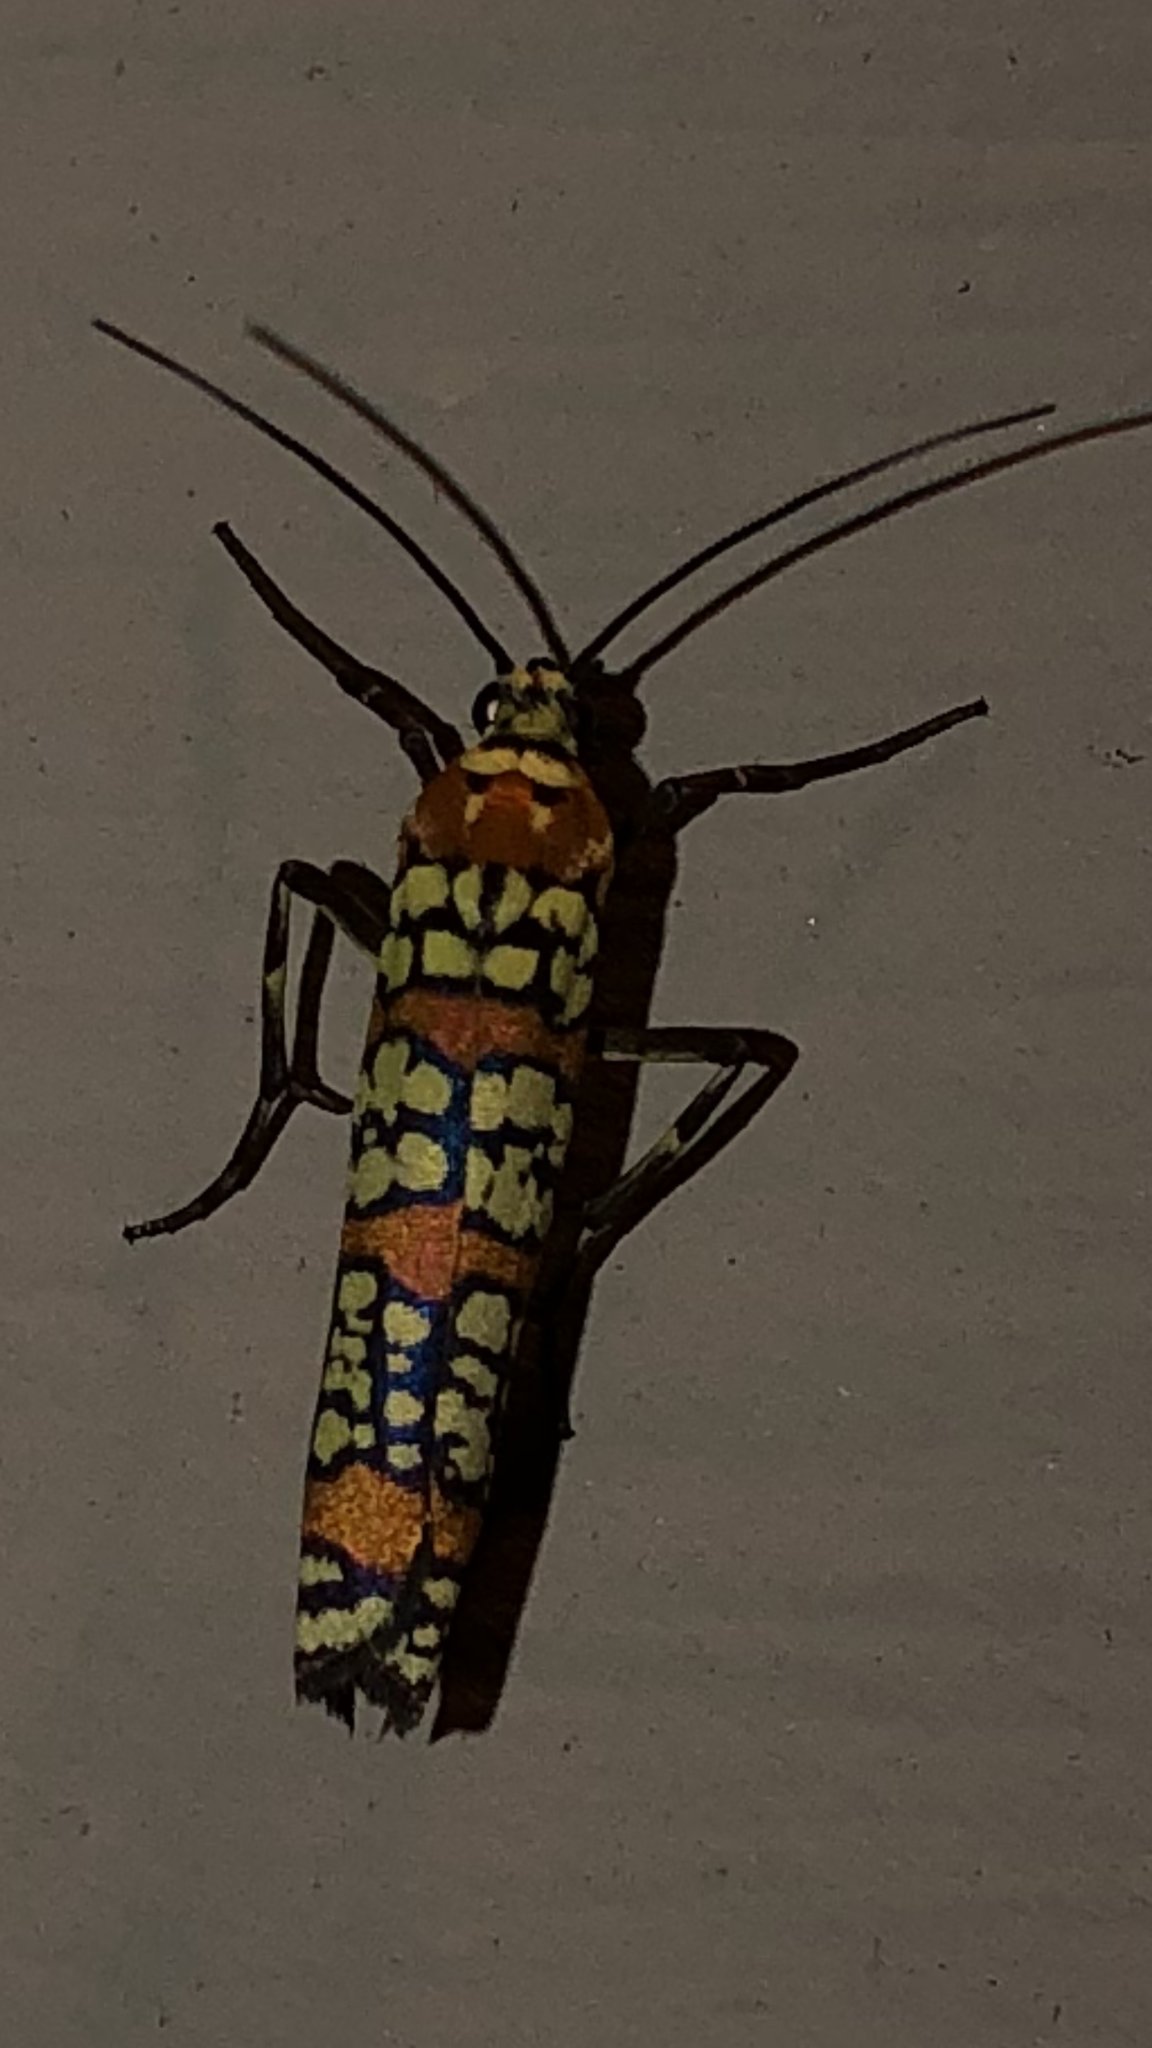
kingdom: Animalia
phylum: Arthropoda
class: Insecta
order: Lepidoptera
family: Attevidae
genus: Atteva
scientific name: Atteva punctella
